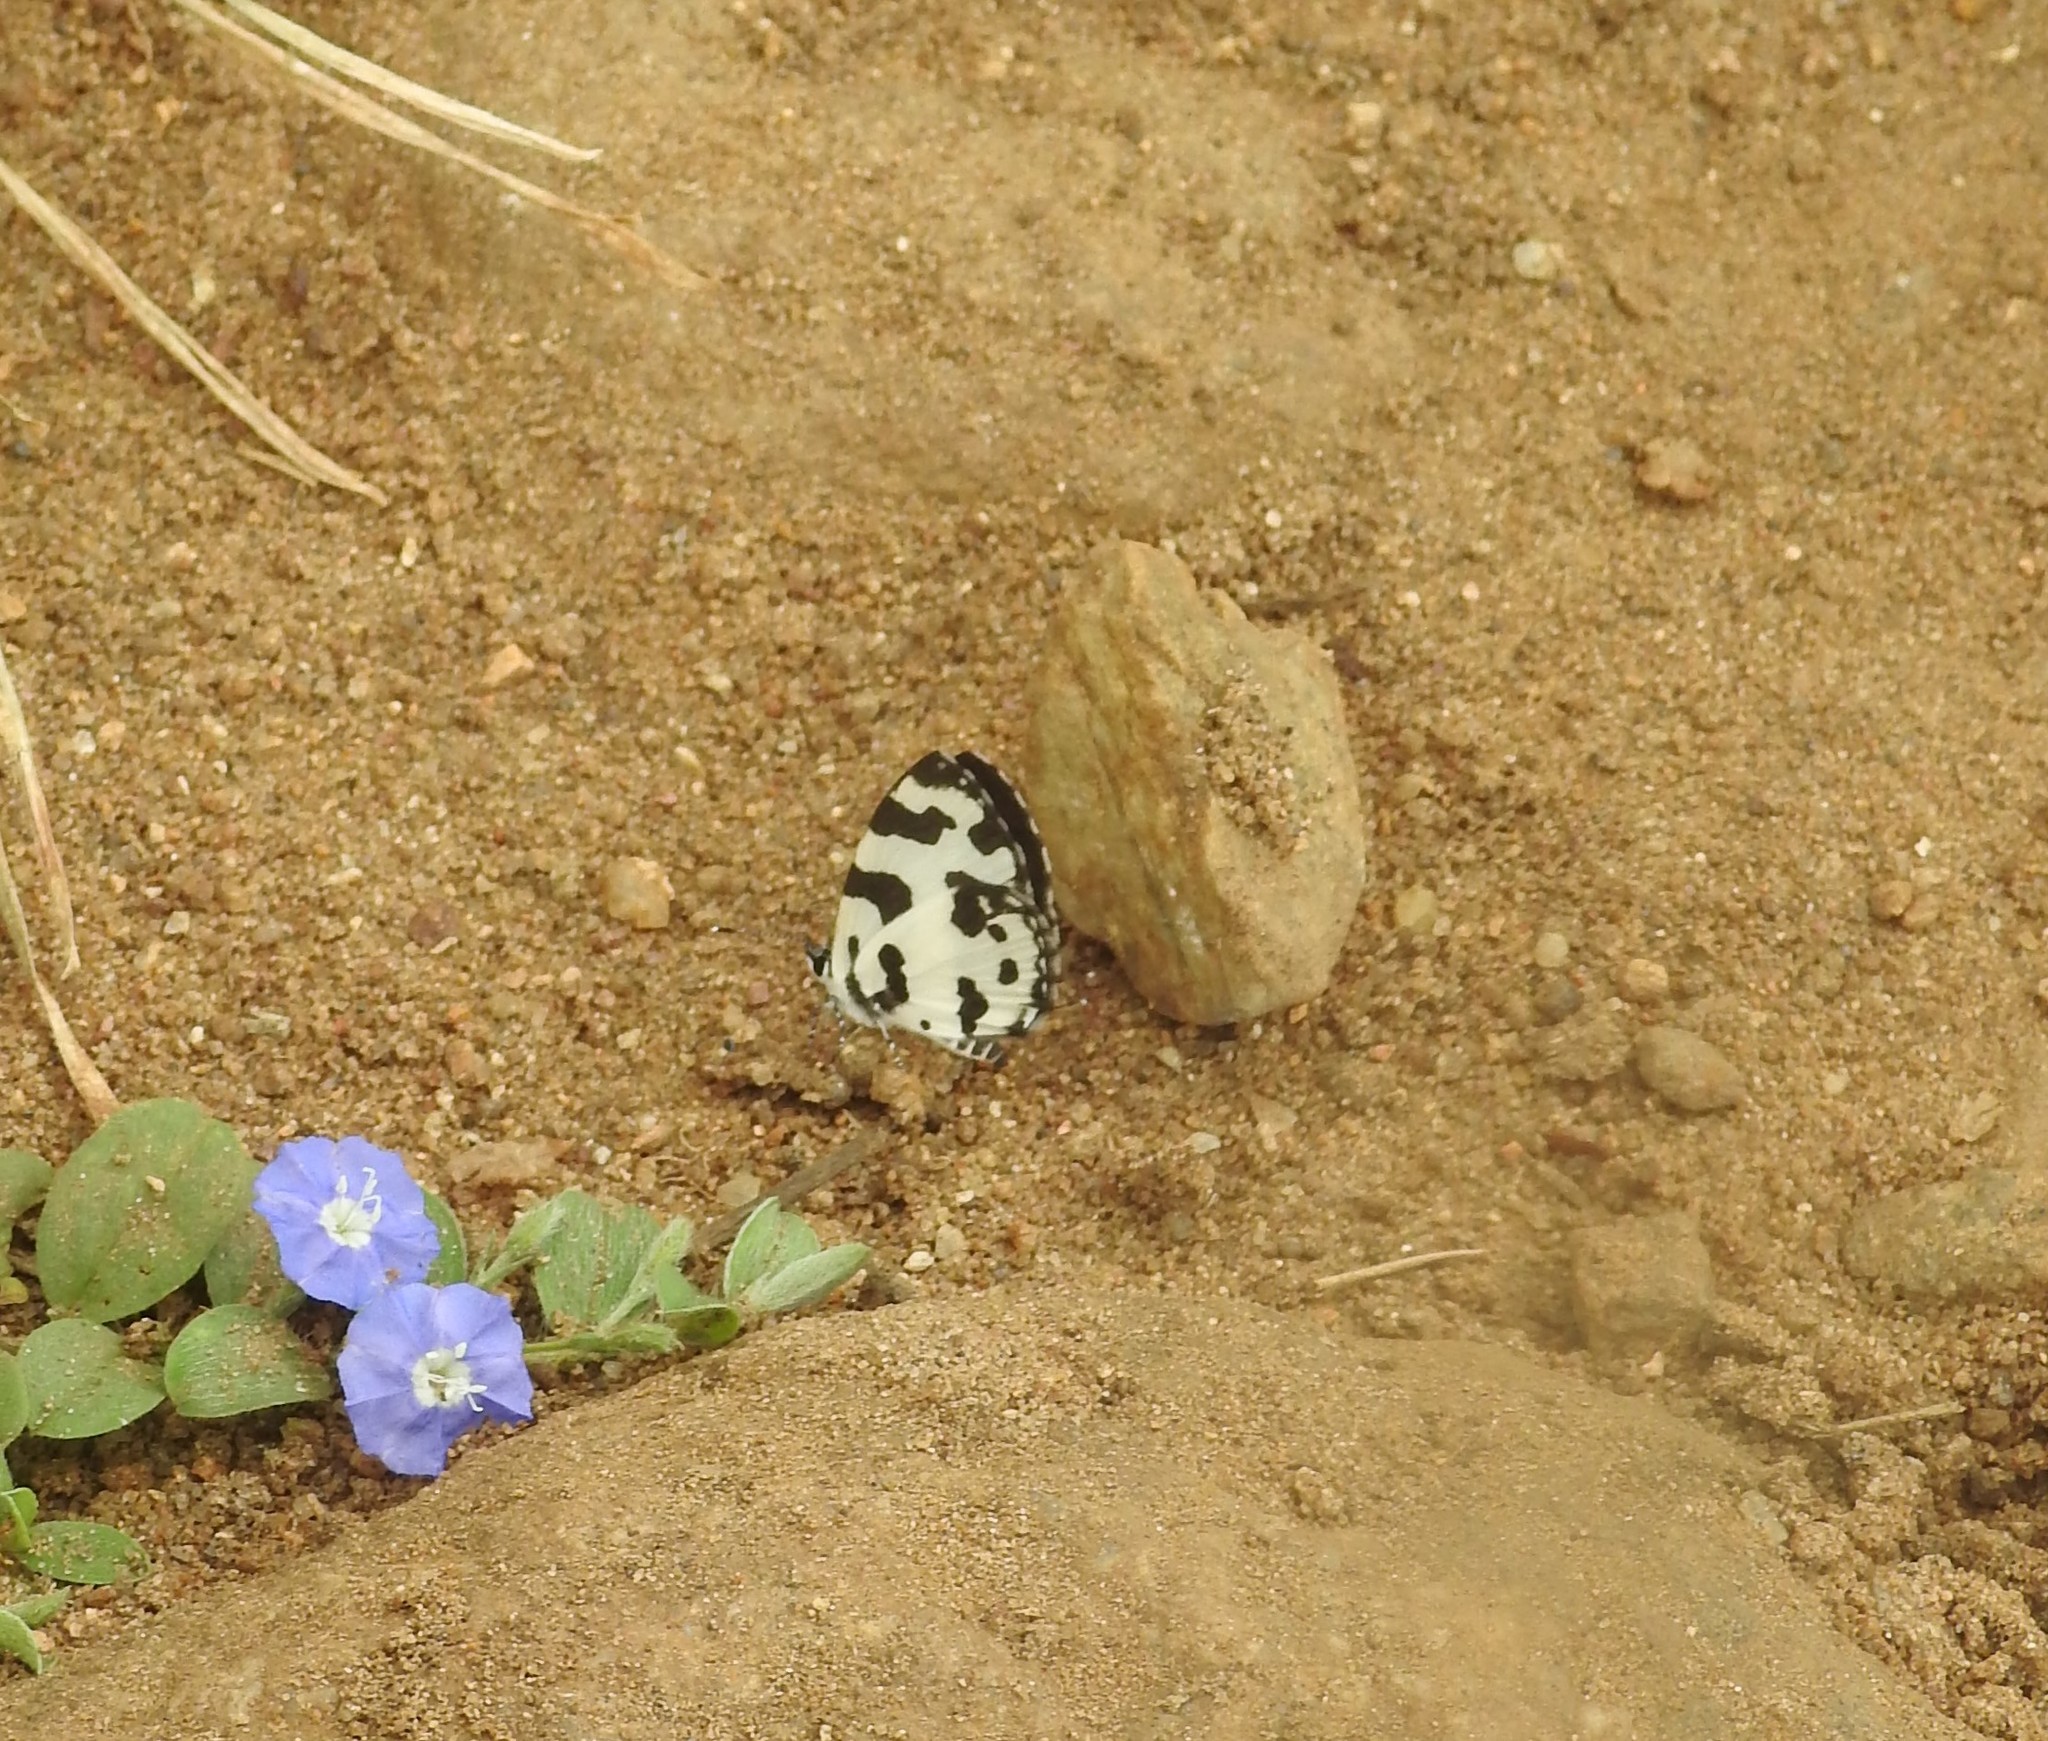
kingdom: Animalia
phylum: Arthropoda
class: Insecta
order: Lepidoptera
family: Lycaenidae
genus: Caleta
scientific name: Caleta decidia
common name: Angled pierrot
